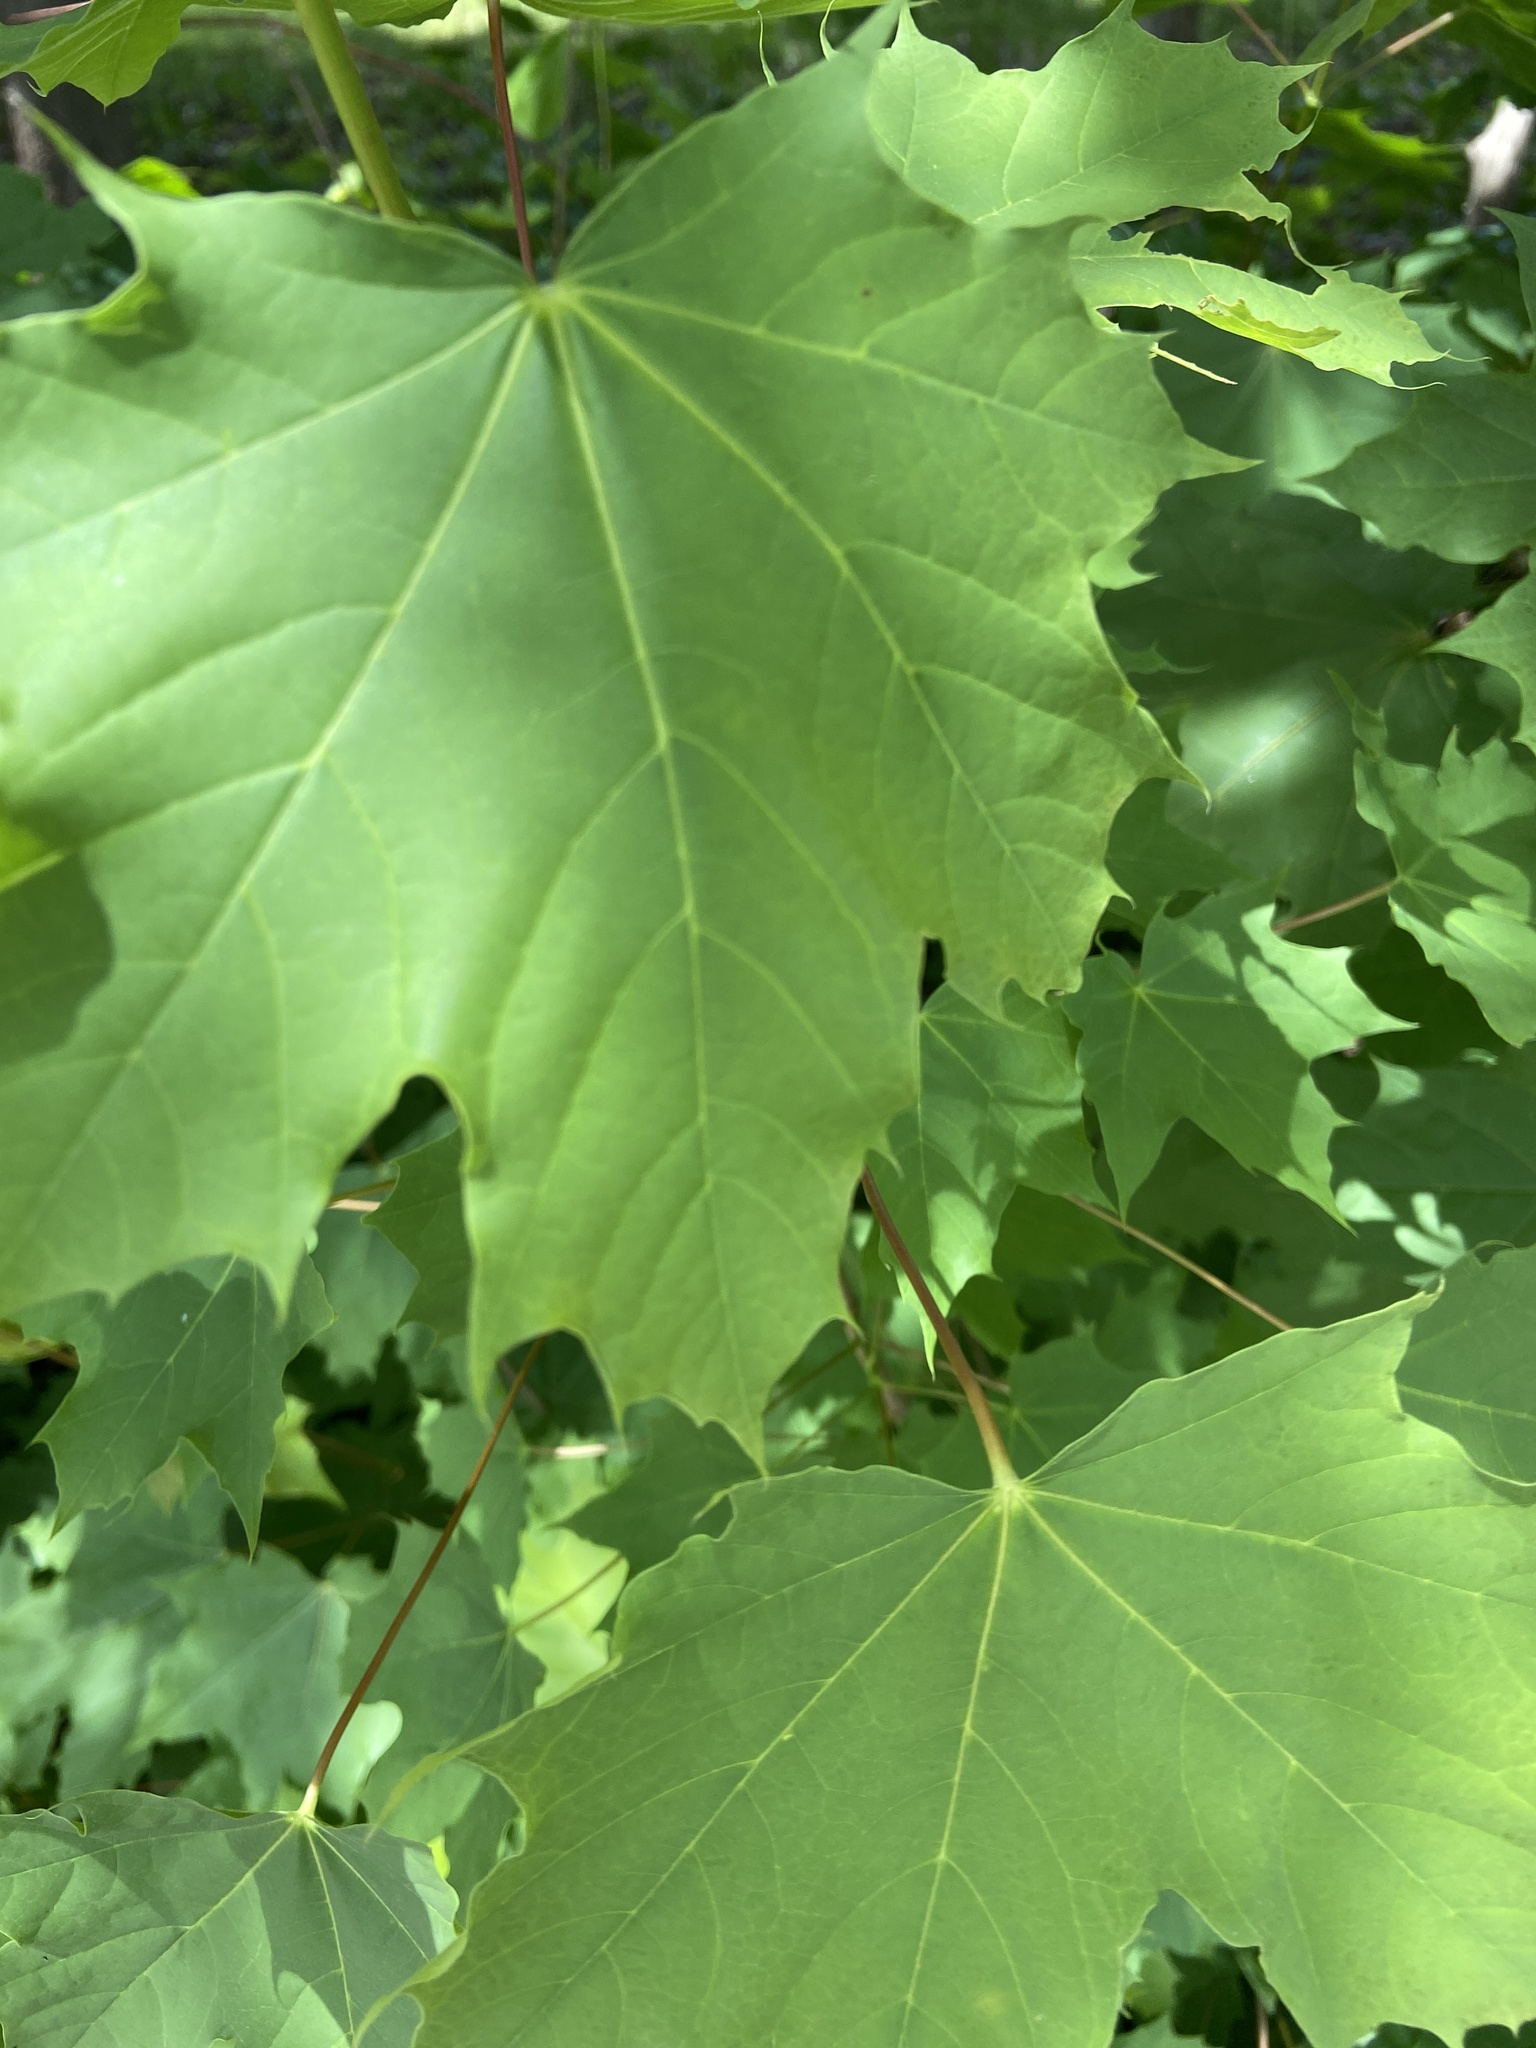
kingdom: Plantae
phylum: Tracheophyta
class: Magnoliopsida
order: Sapindales
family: Sapindaceae
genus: Acer
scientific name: Acer platanoides
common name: Norway maple
